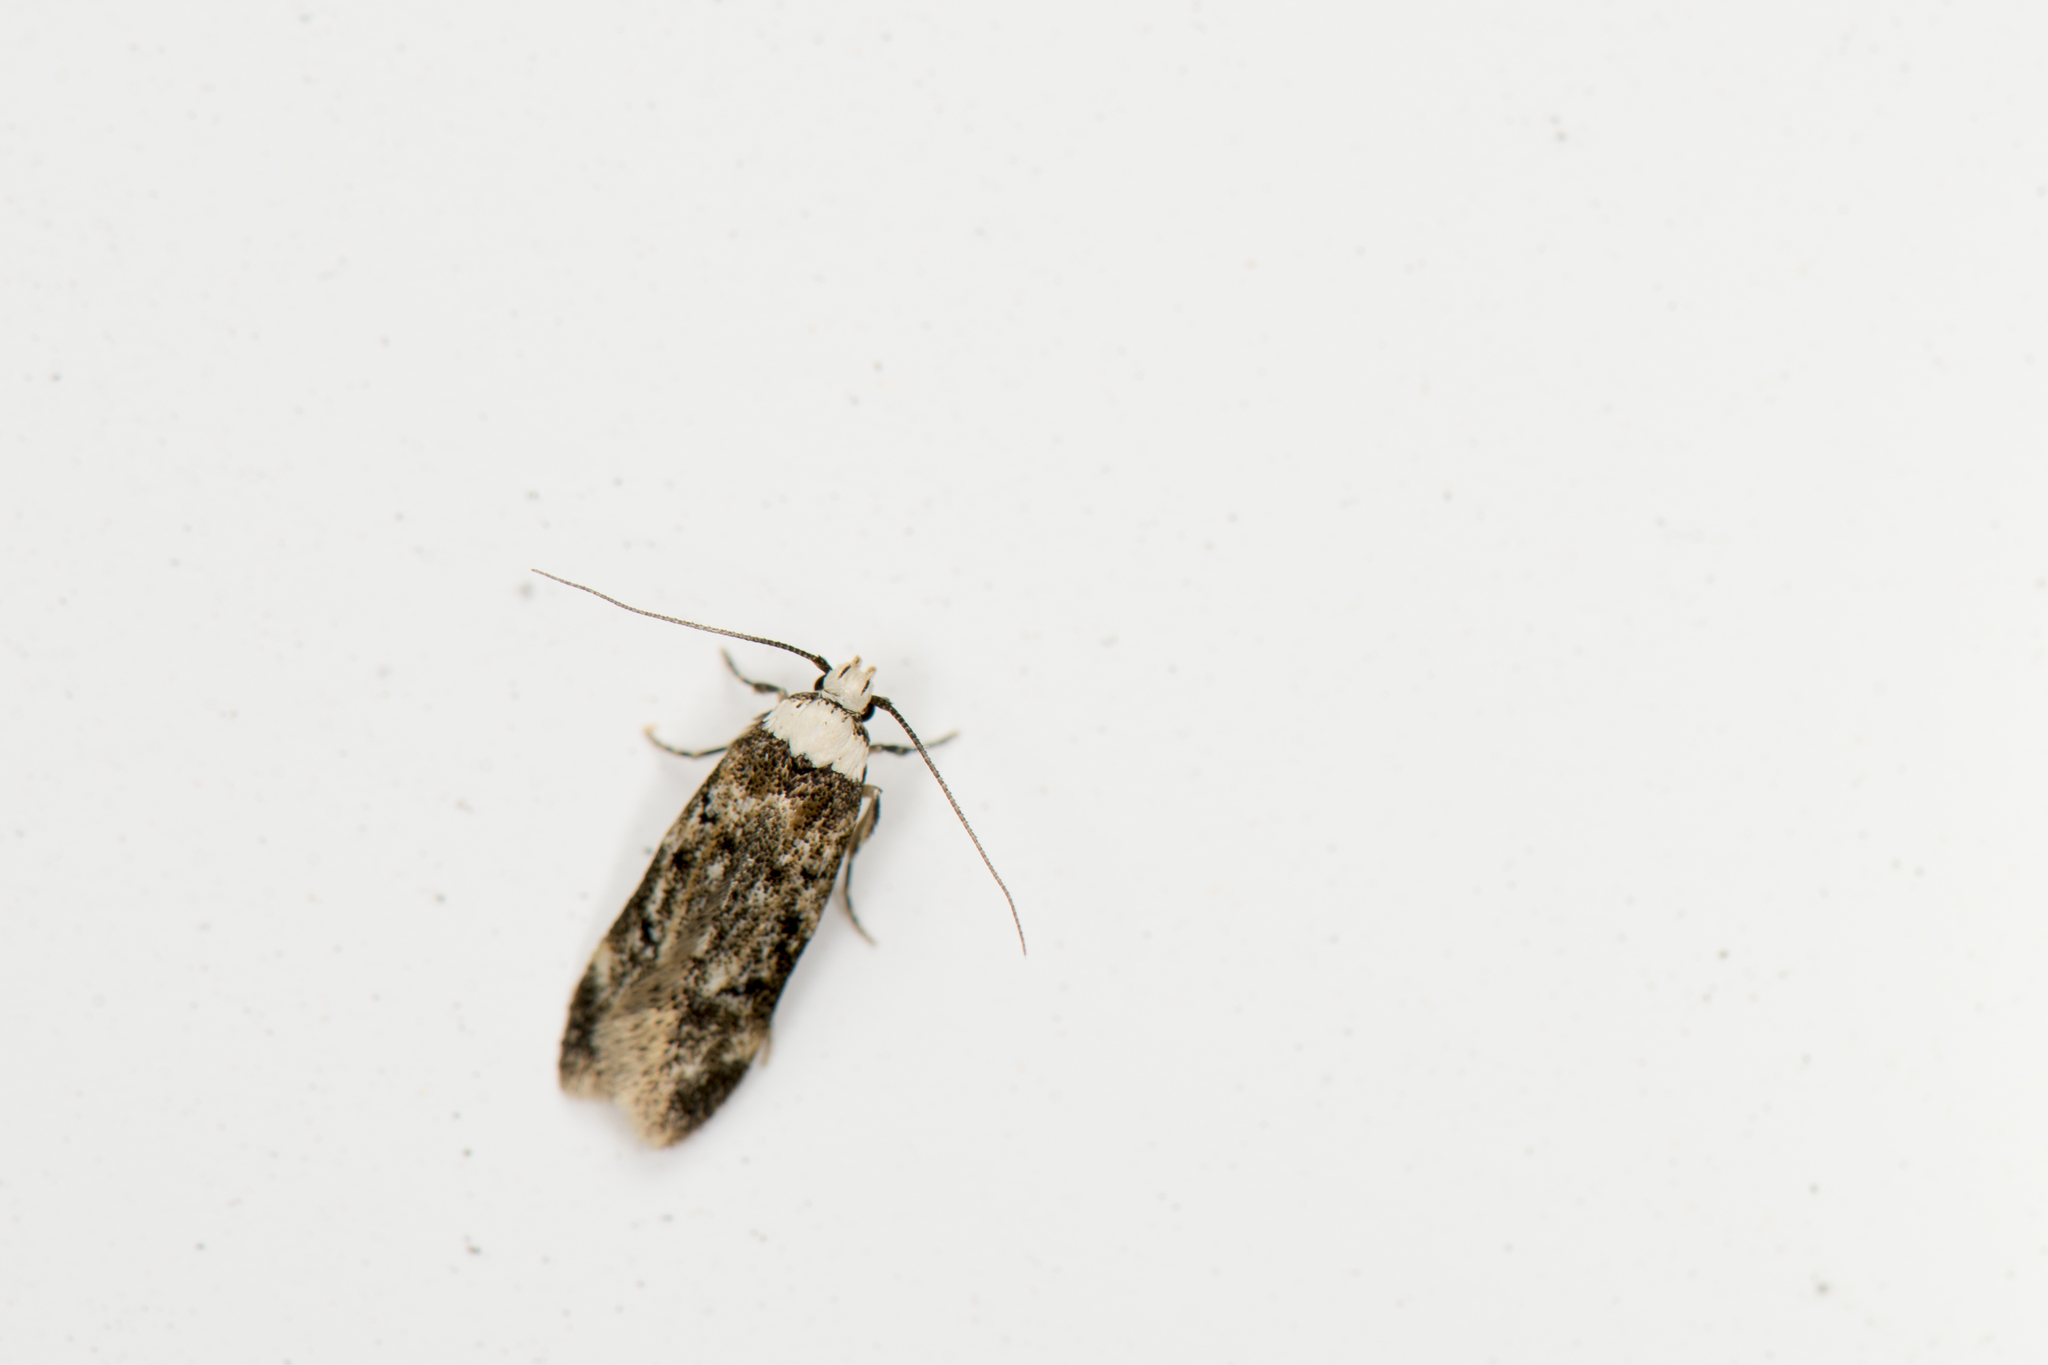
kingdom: Animalia
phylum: Arthropoda
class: Insecta
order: Lepidoptera
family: Oecophoridae
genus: Endrosis
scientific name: Endrosis sarcitrella
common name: White-shouldered house moth
